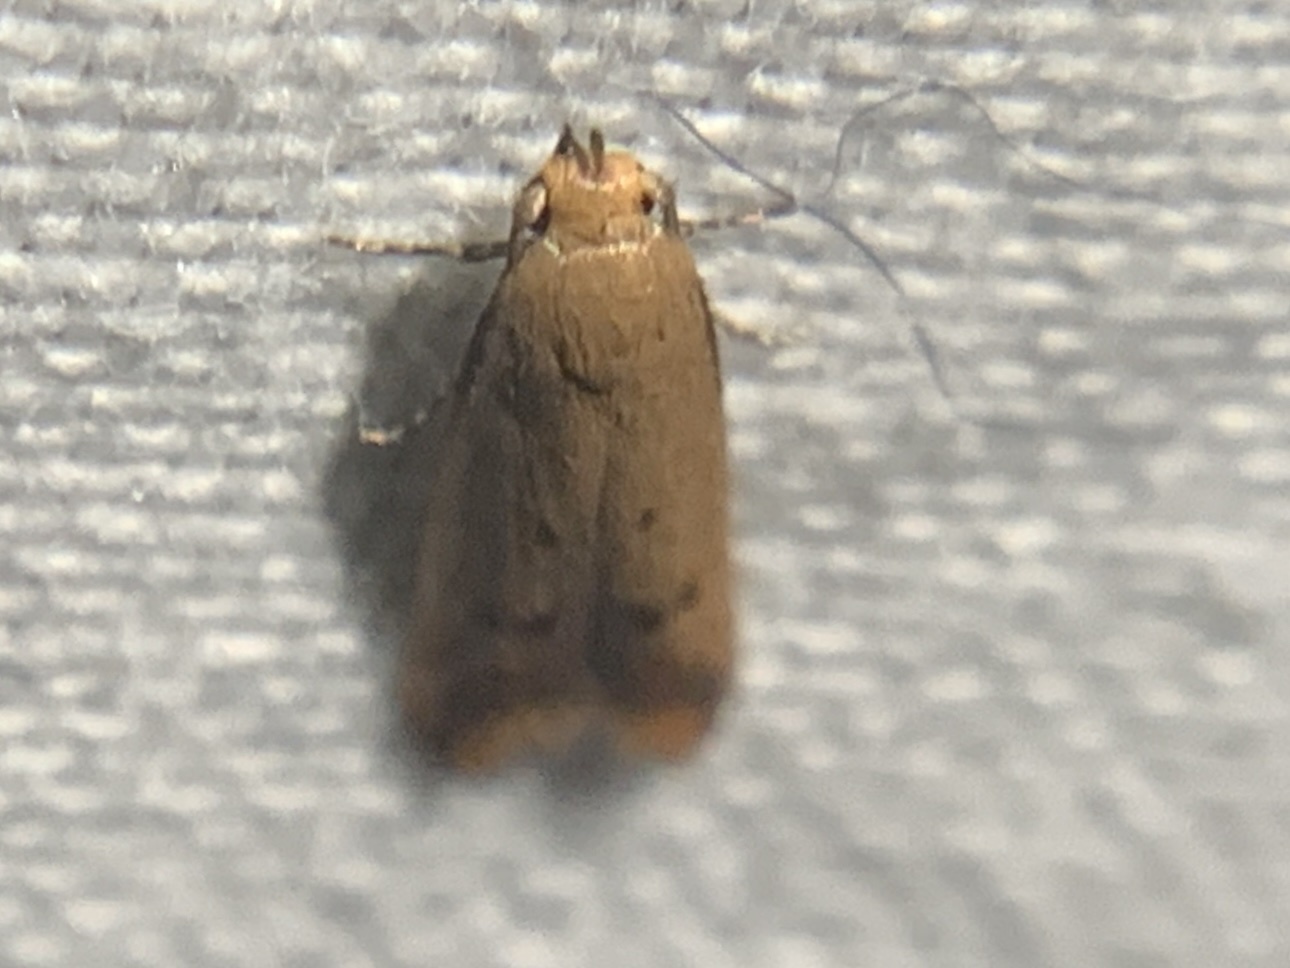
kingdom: Animalia
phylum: Arthropoda
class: Insecta
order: Lepidoptera
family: Oecophoridae
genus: Tachystola
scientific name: Tachystola hemisema
